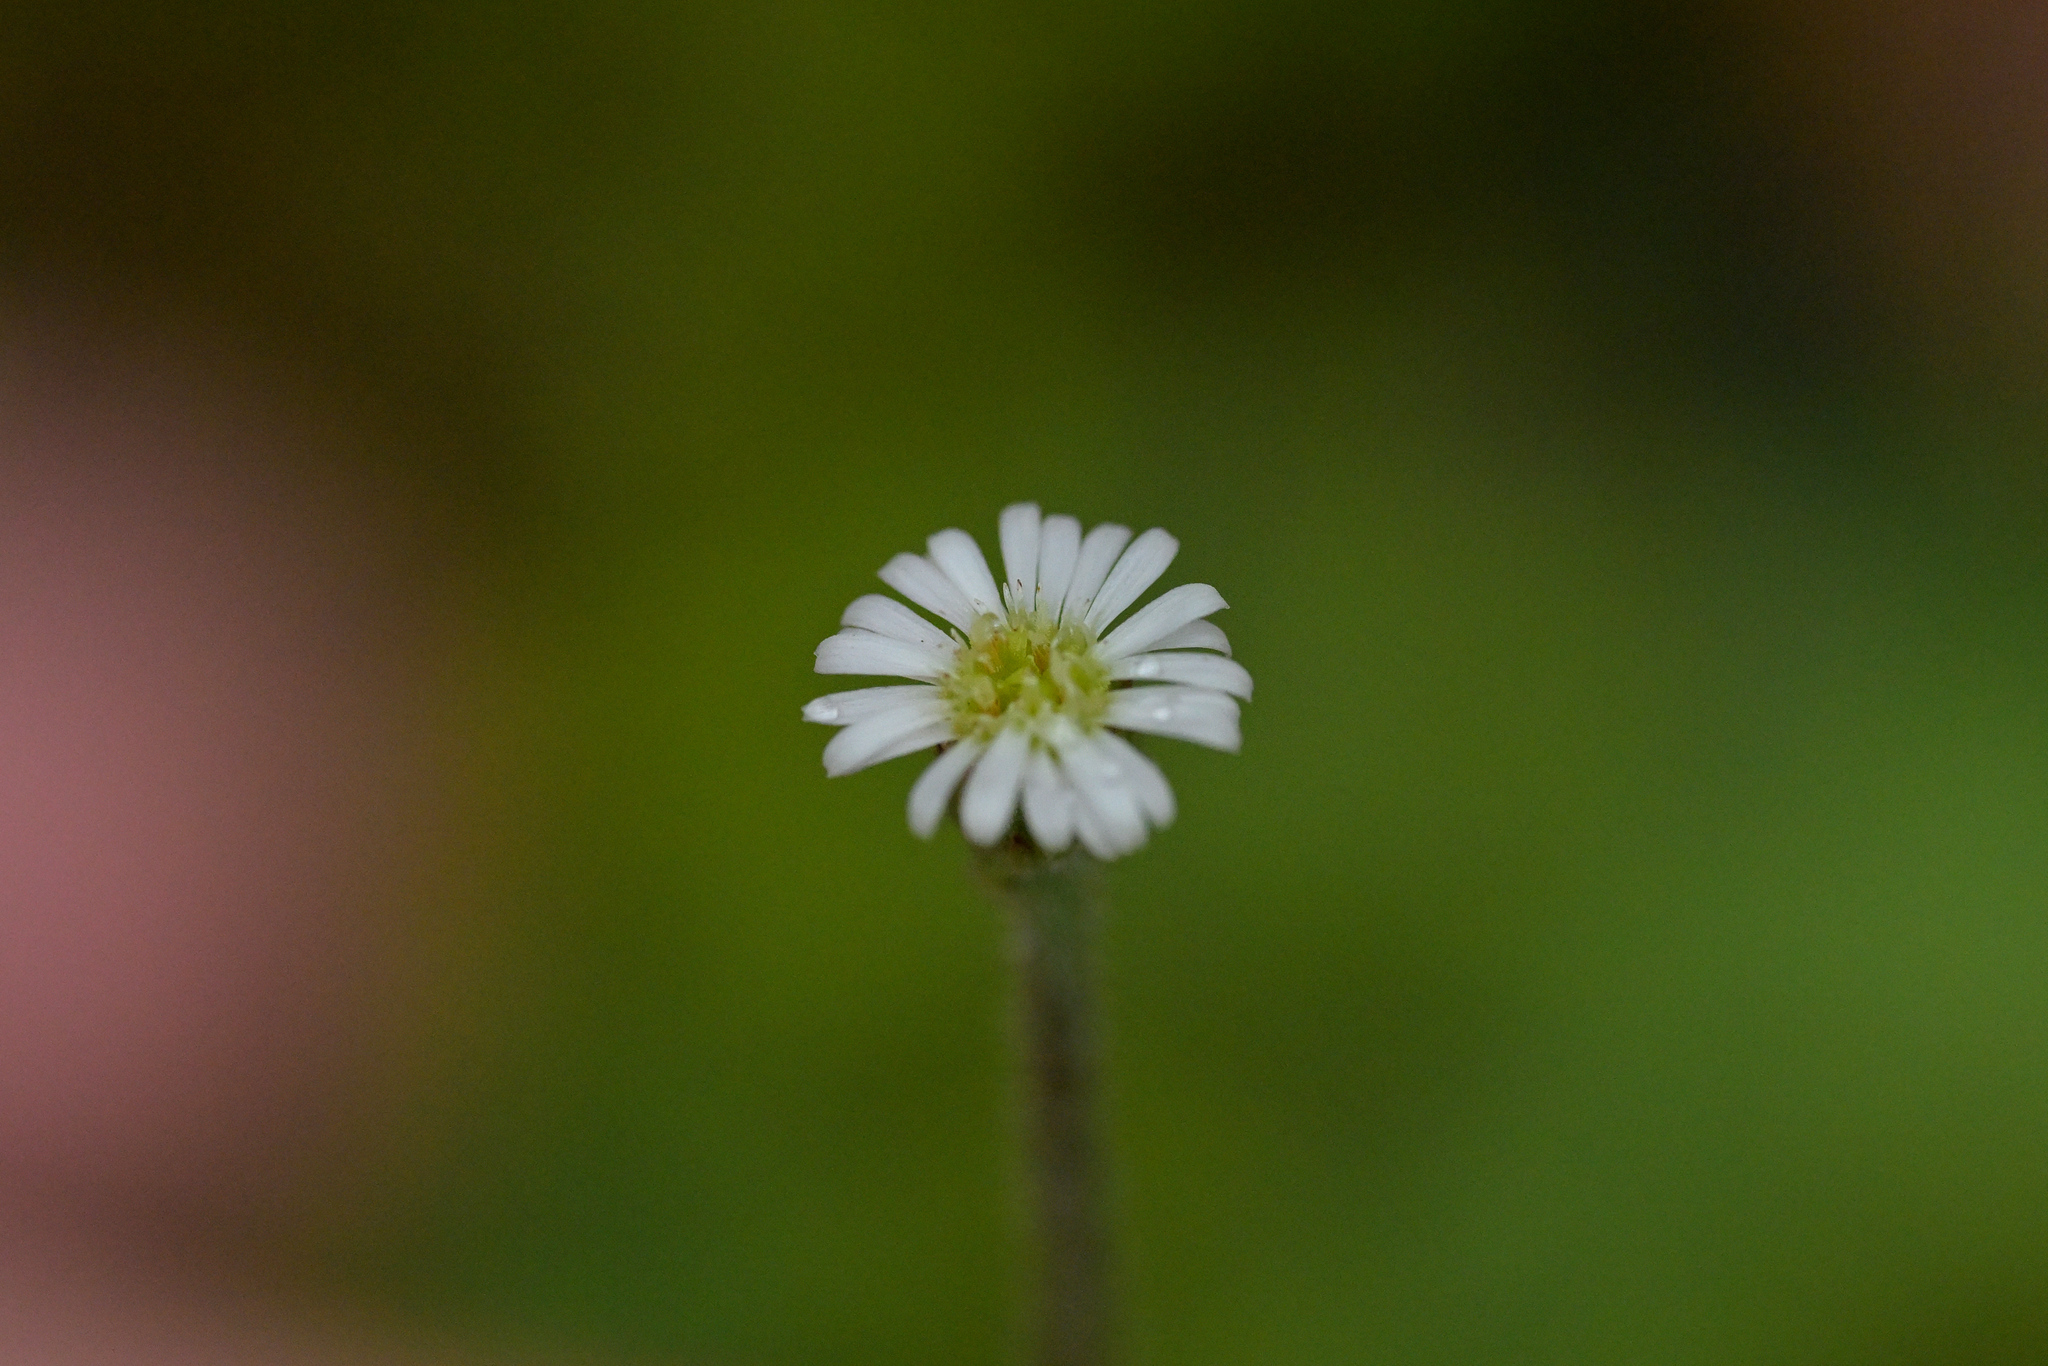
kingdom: Plantae
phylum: Tracheophyta
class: Magnoliopsida
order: Asterales
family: Asteraceae
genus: Lagenophora
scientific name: Lagenophora pinnatifida
